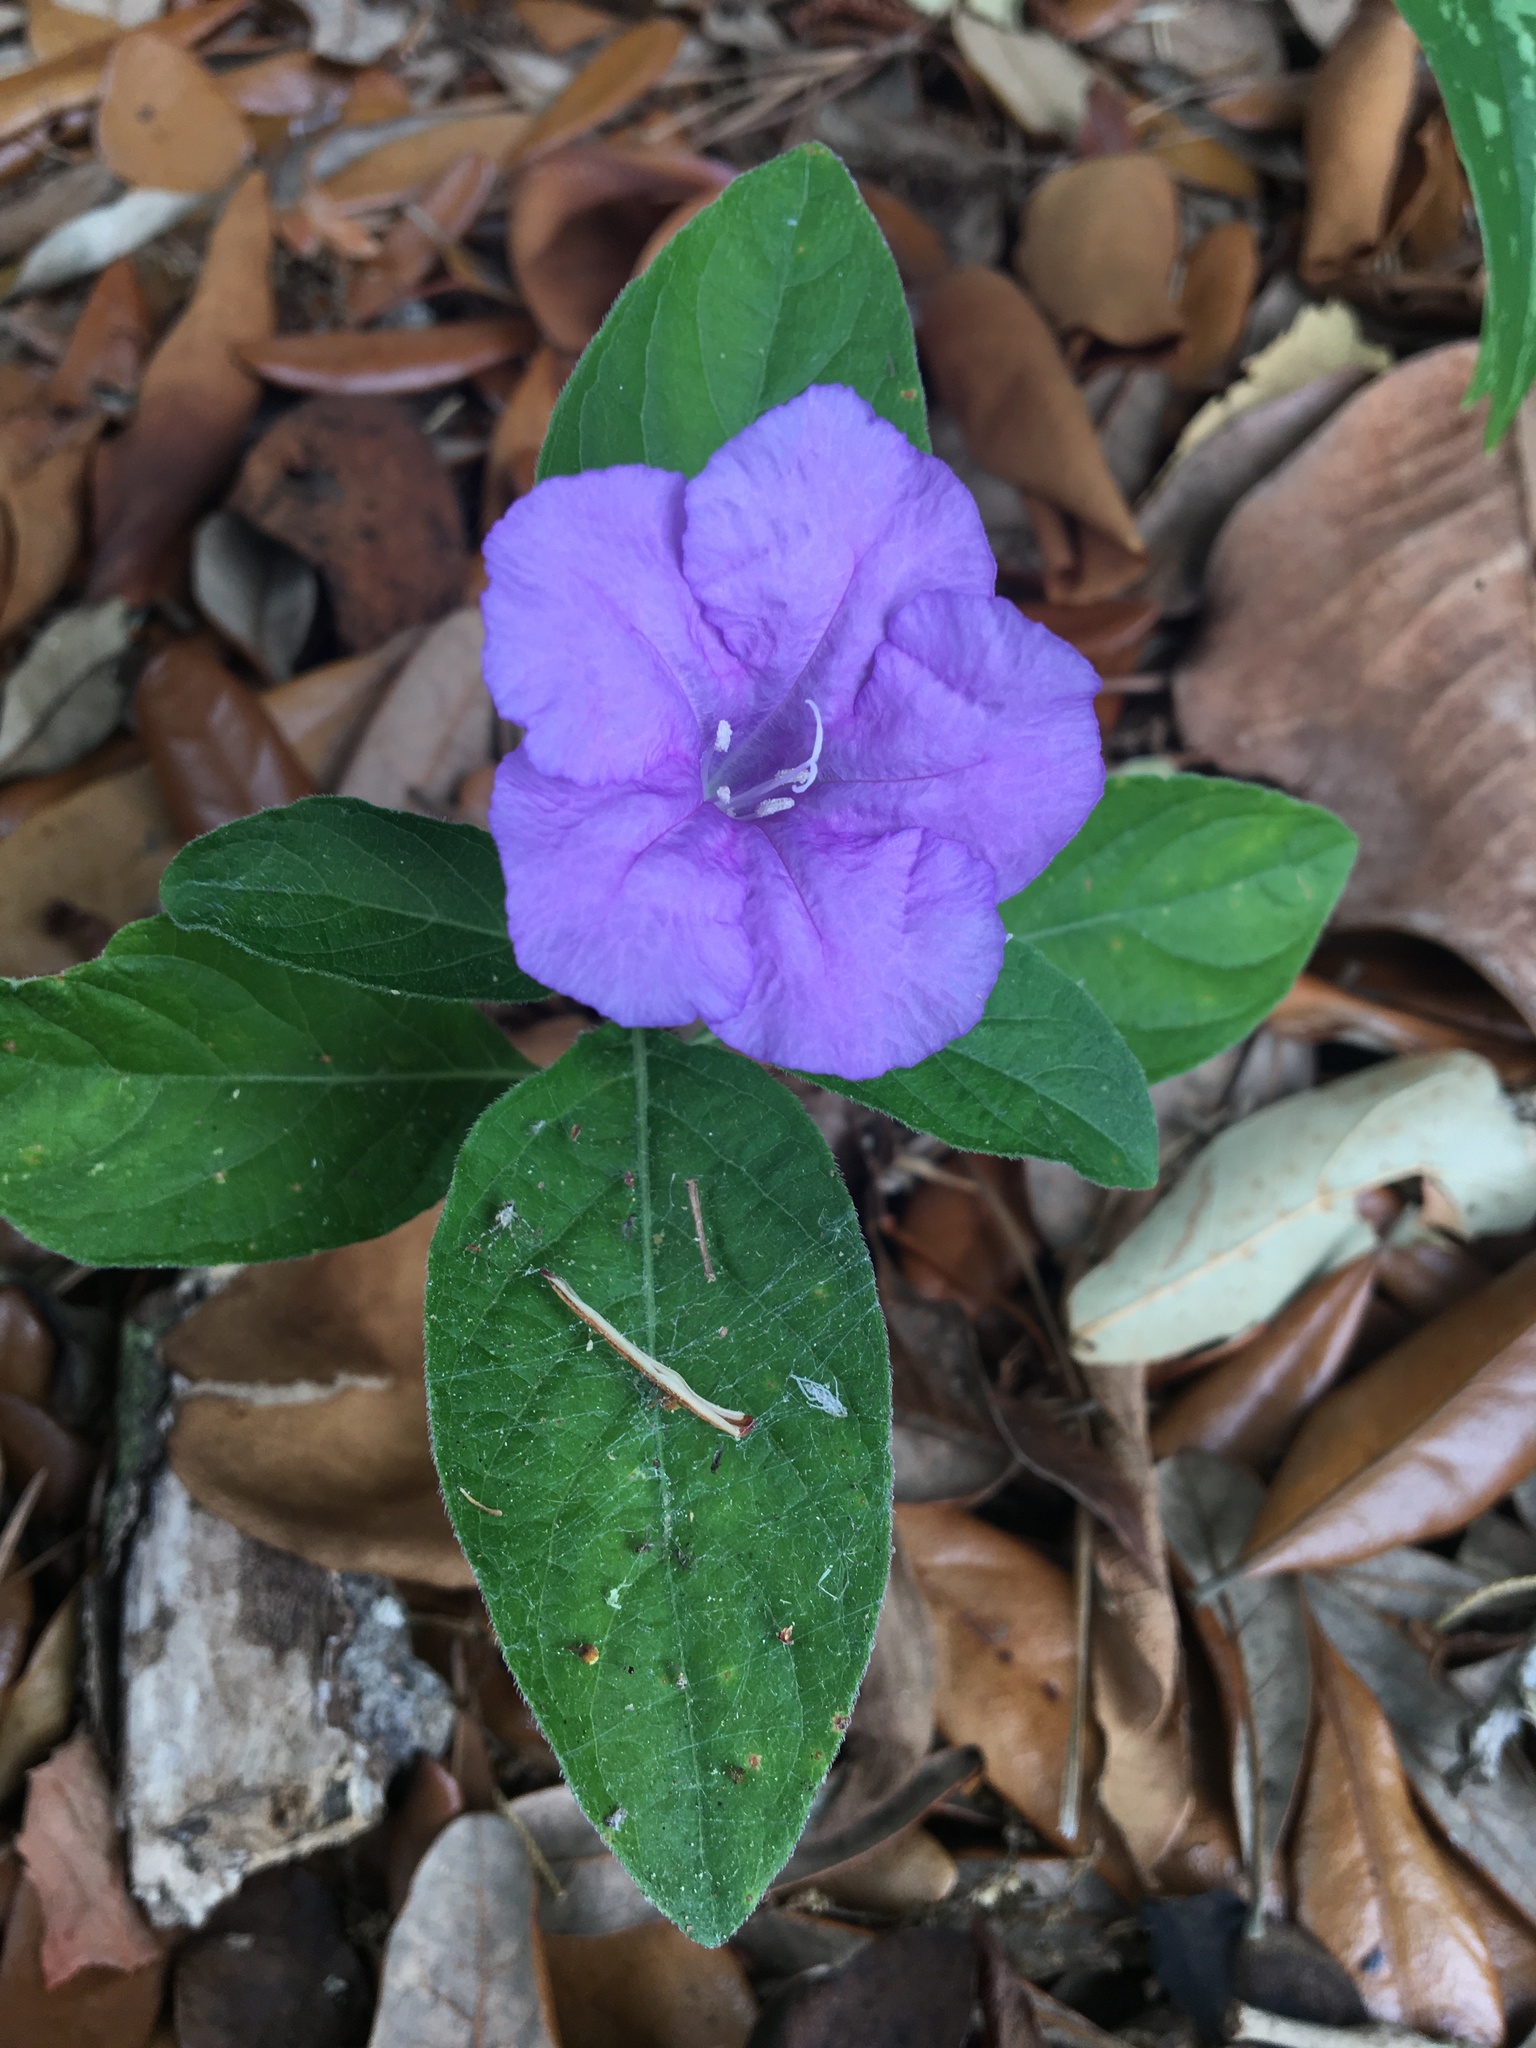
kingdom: Plantae
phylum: Tracheophyta
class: Magnoliopsida
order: Lamiales
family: Acanthaceae
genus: Ruellia
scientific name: Ruellia caroliniensis
